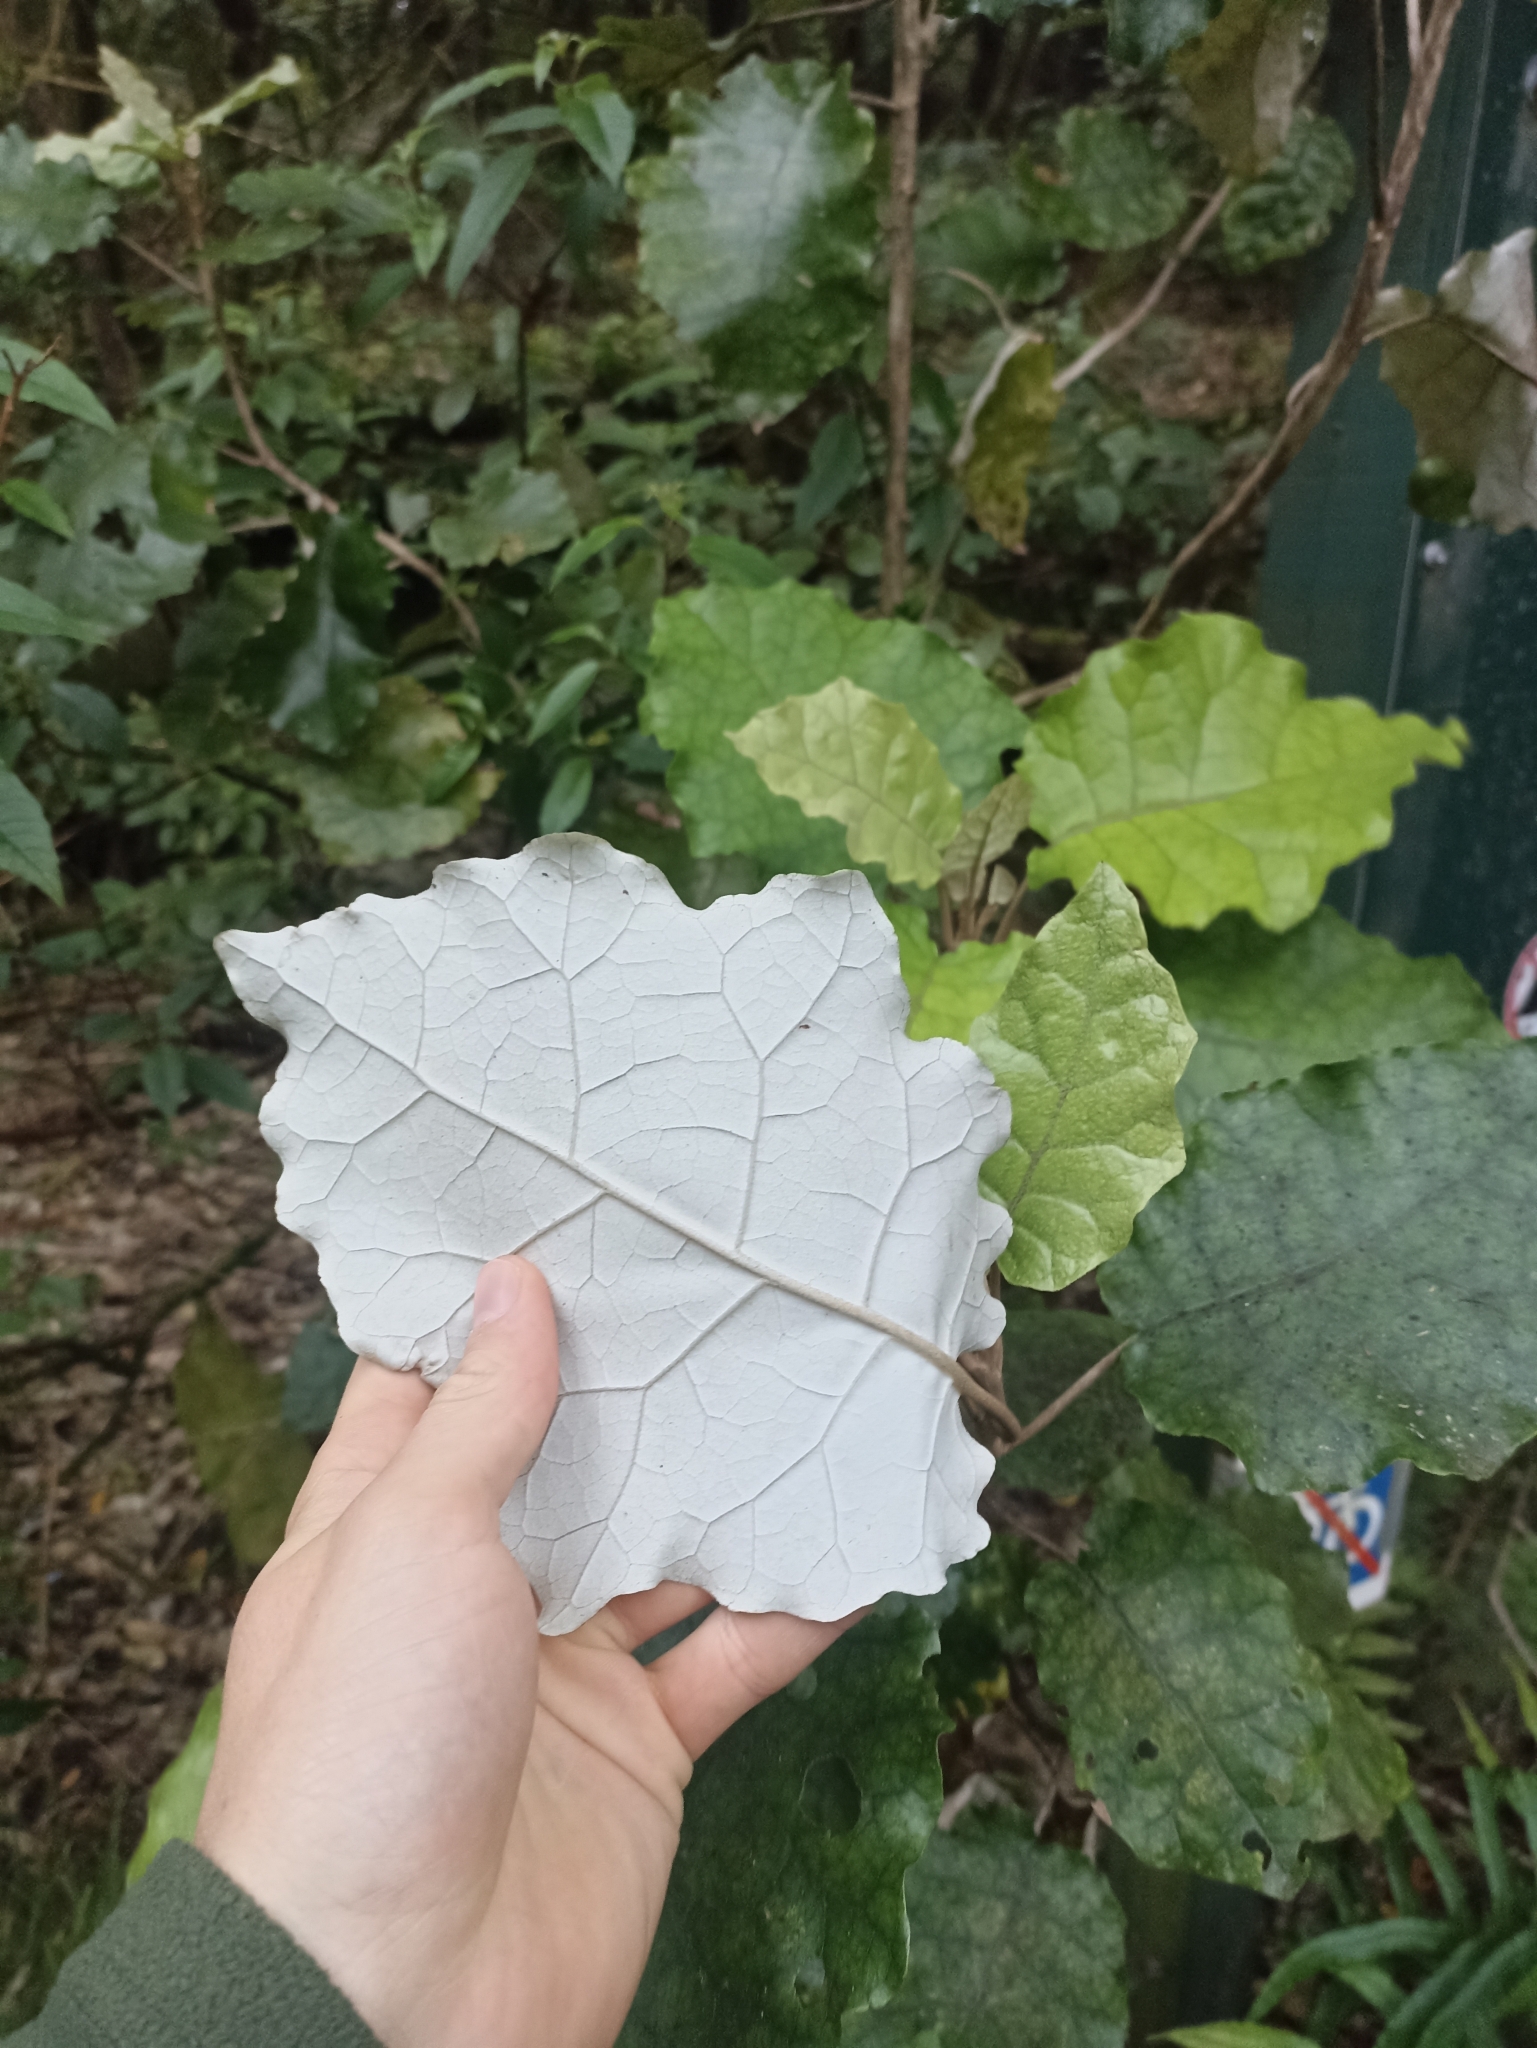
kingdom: Plantae
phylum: Tracheophyta
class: Magnoliopsida
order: Asterales
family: Asteraceae
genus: Brachyglottis
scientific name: Brachyglottis repanda
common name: Hedge ragwort
